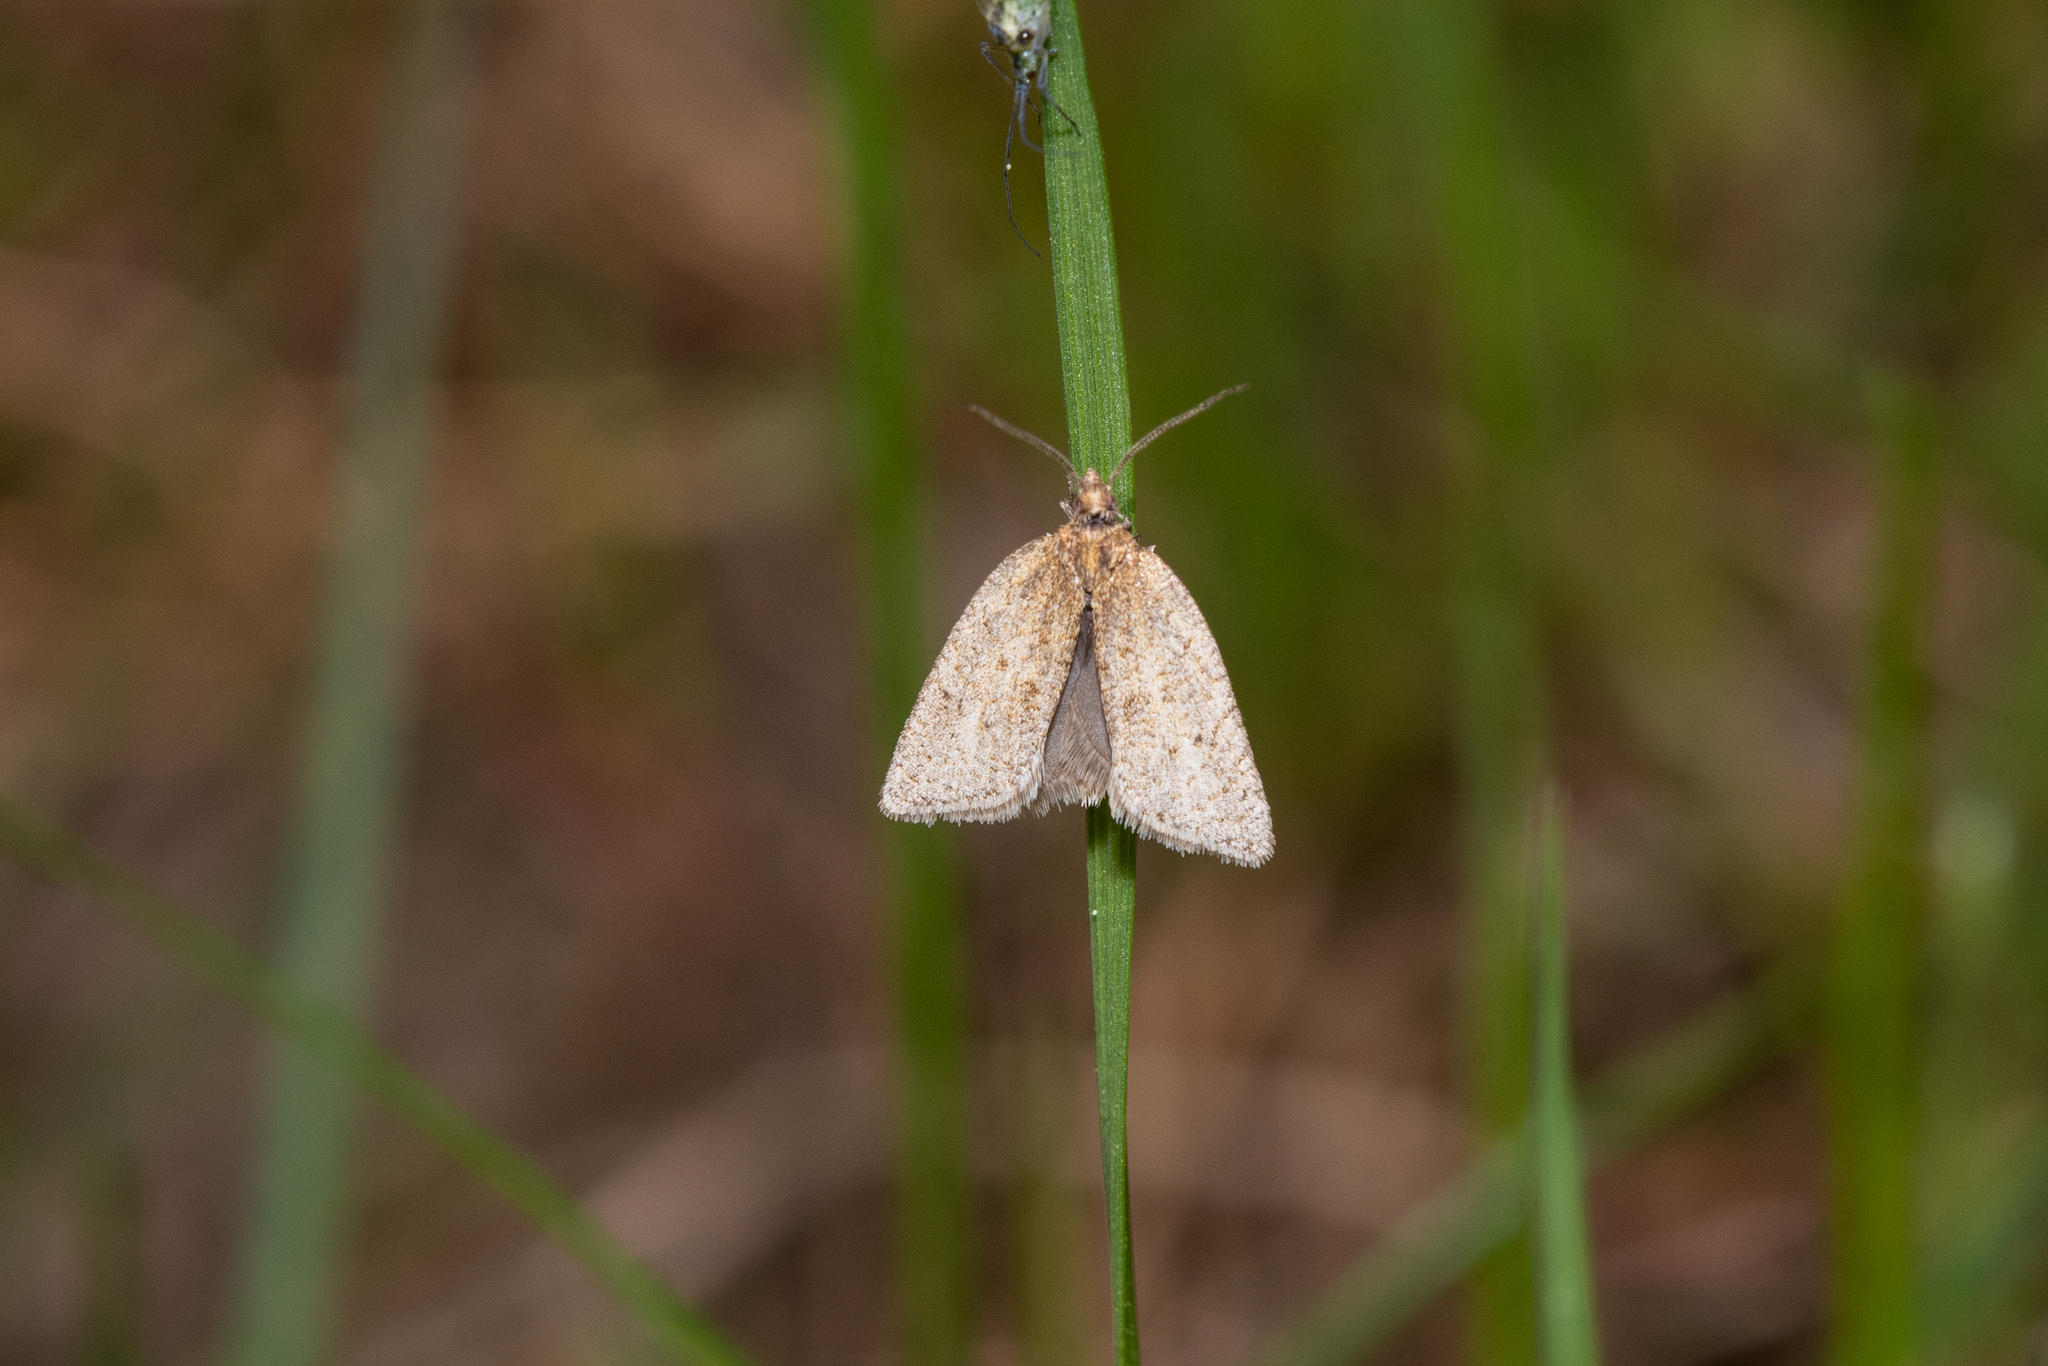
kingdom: Animalia
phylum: Arthropoda
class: Insecta
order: Lepidoptera
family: Tortricidae
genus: Clepsis
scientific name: Clepsis senecionana
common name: Obscure tortrix
